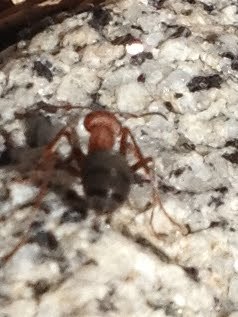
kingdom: Animalia
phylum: Arthropoda
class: Insecta
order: Hymenoptera
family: Formicidae
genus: Formica
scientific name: Formica integroides
